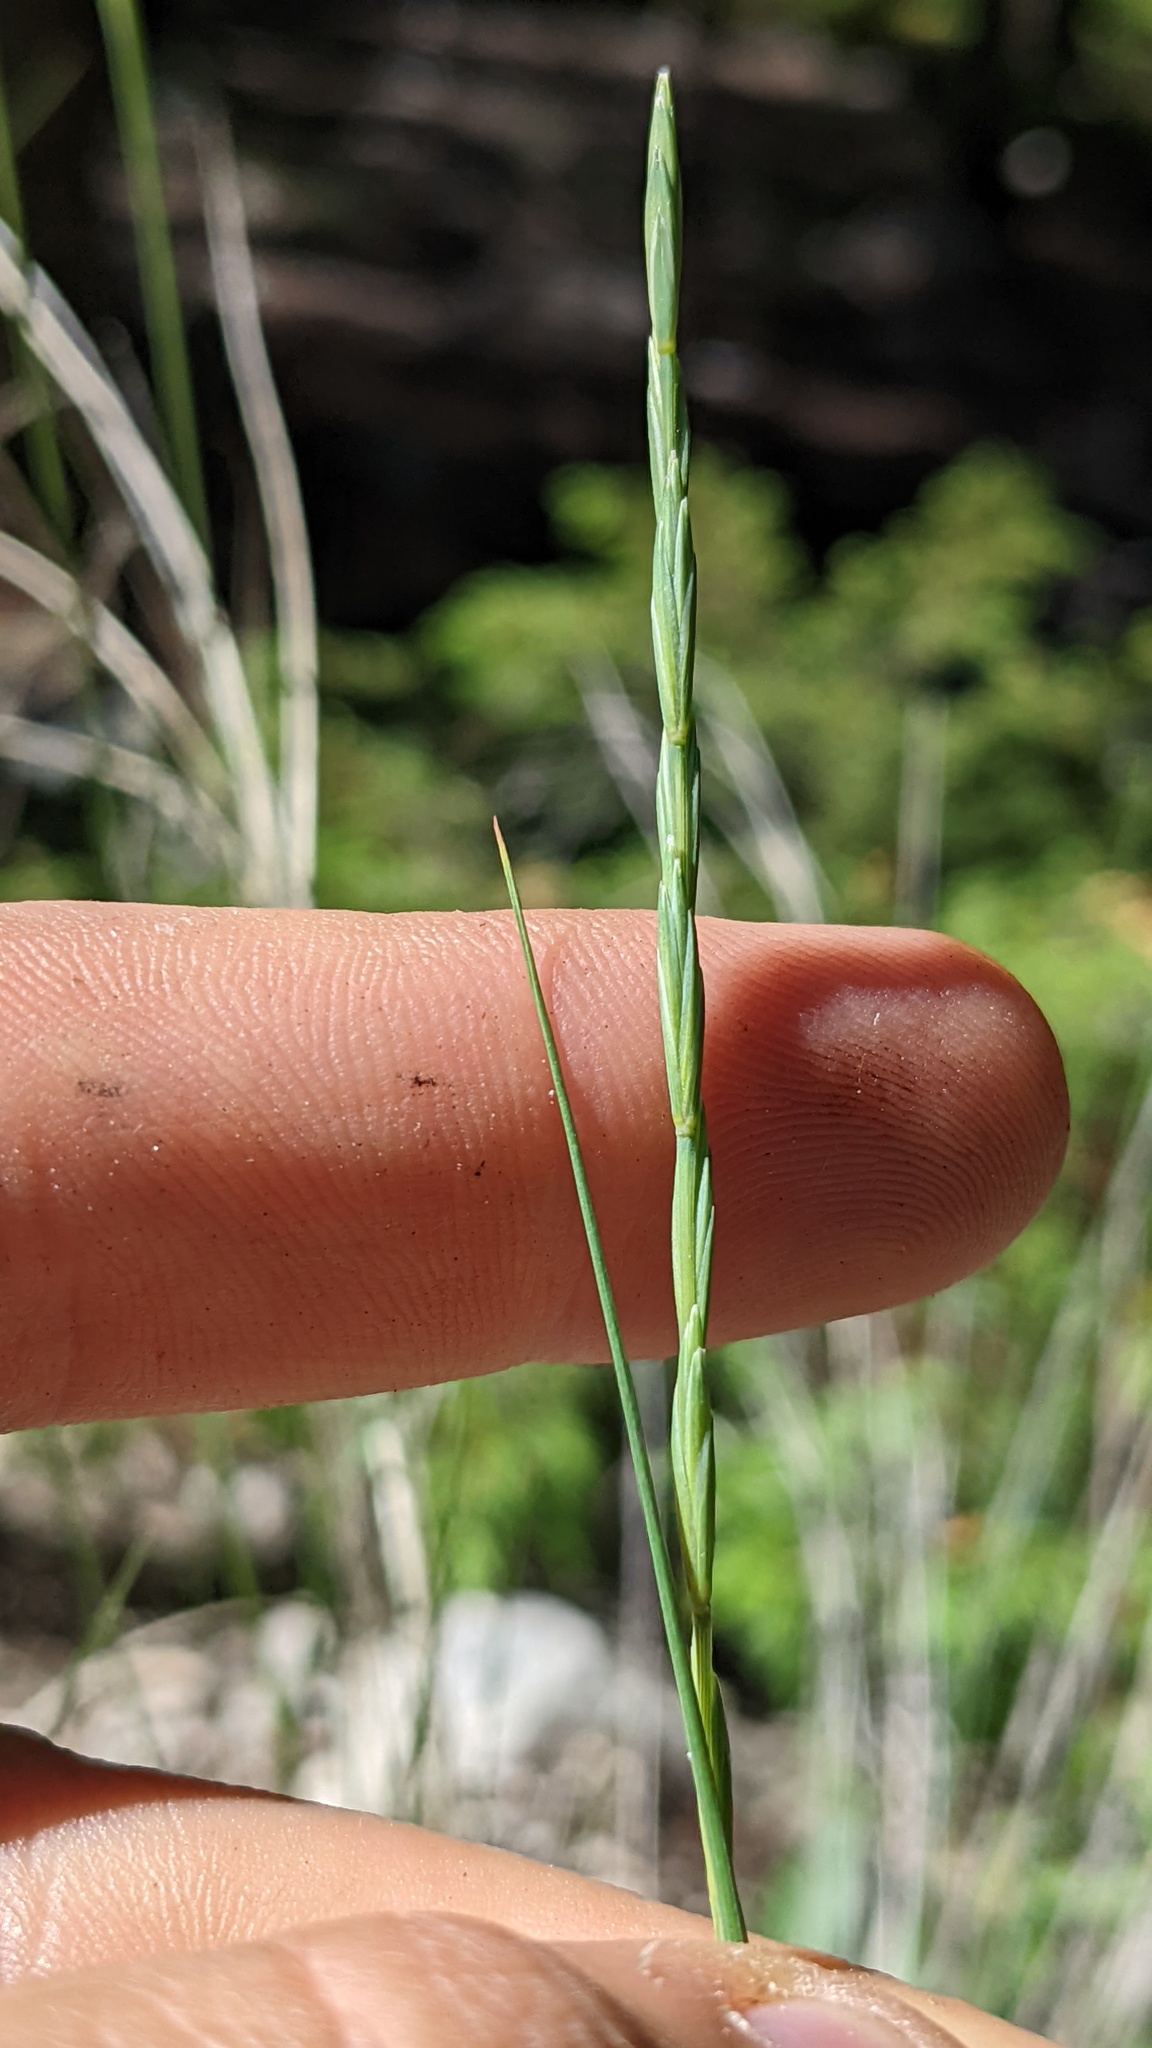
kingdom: Plantae
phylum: Tracheophyta
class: Liliopsida
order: Poales
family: Poaceae
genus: Pseudoroegneria
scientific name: Pseudoroegneria spicata
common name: Bluebunch wheatgrass
